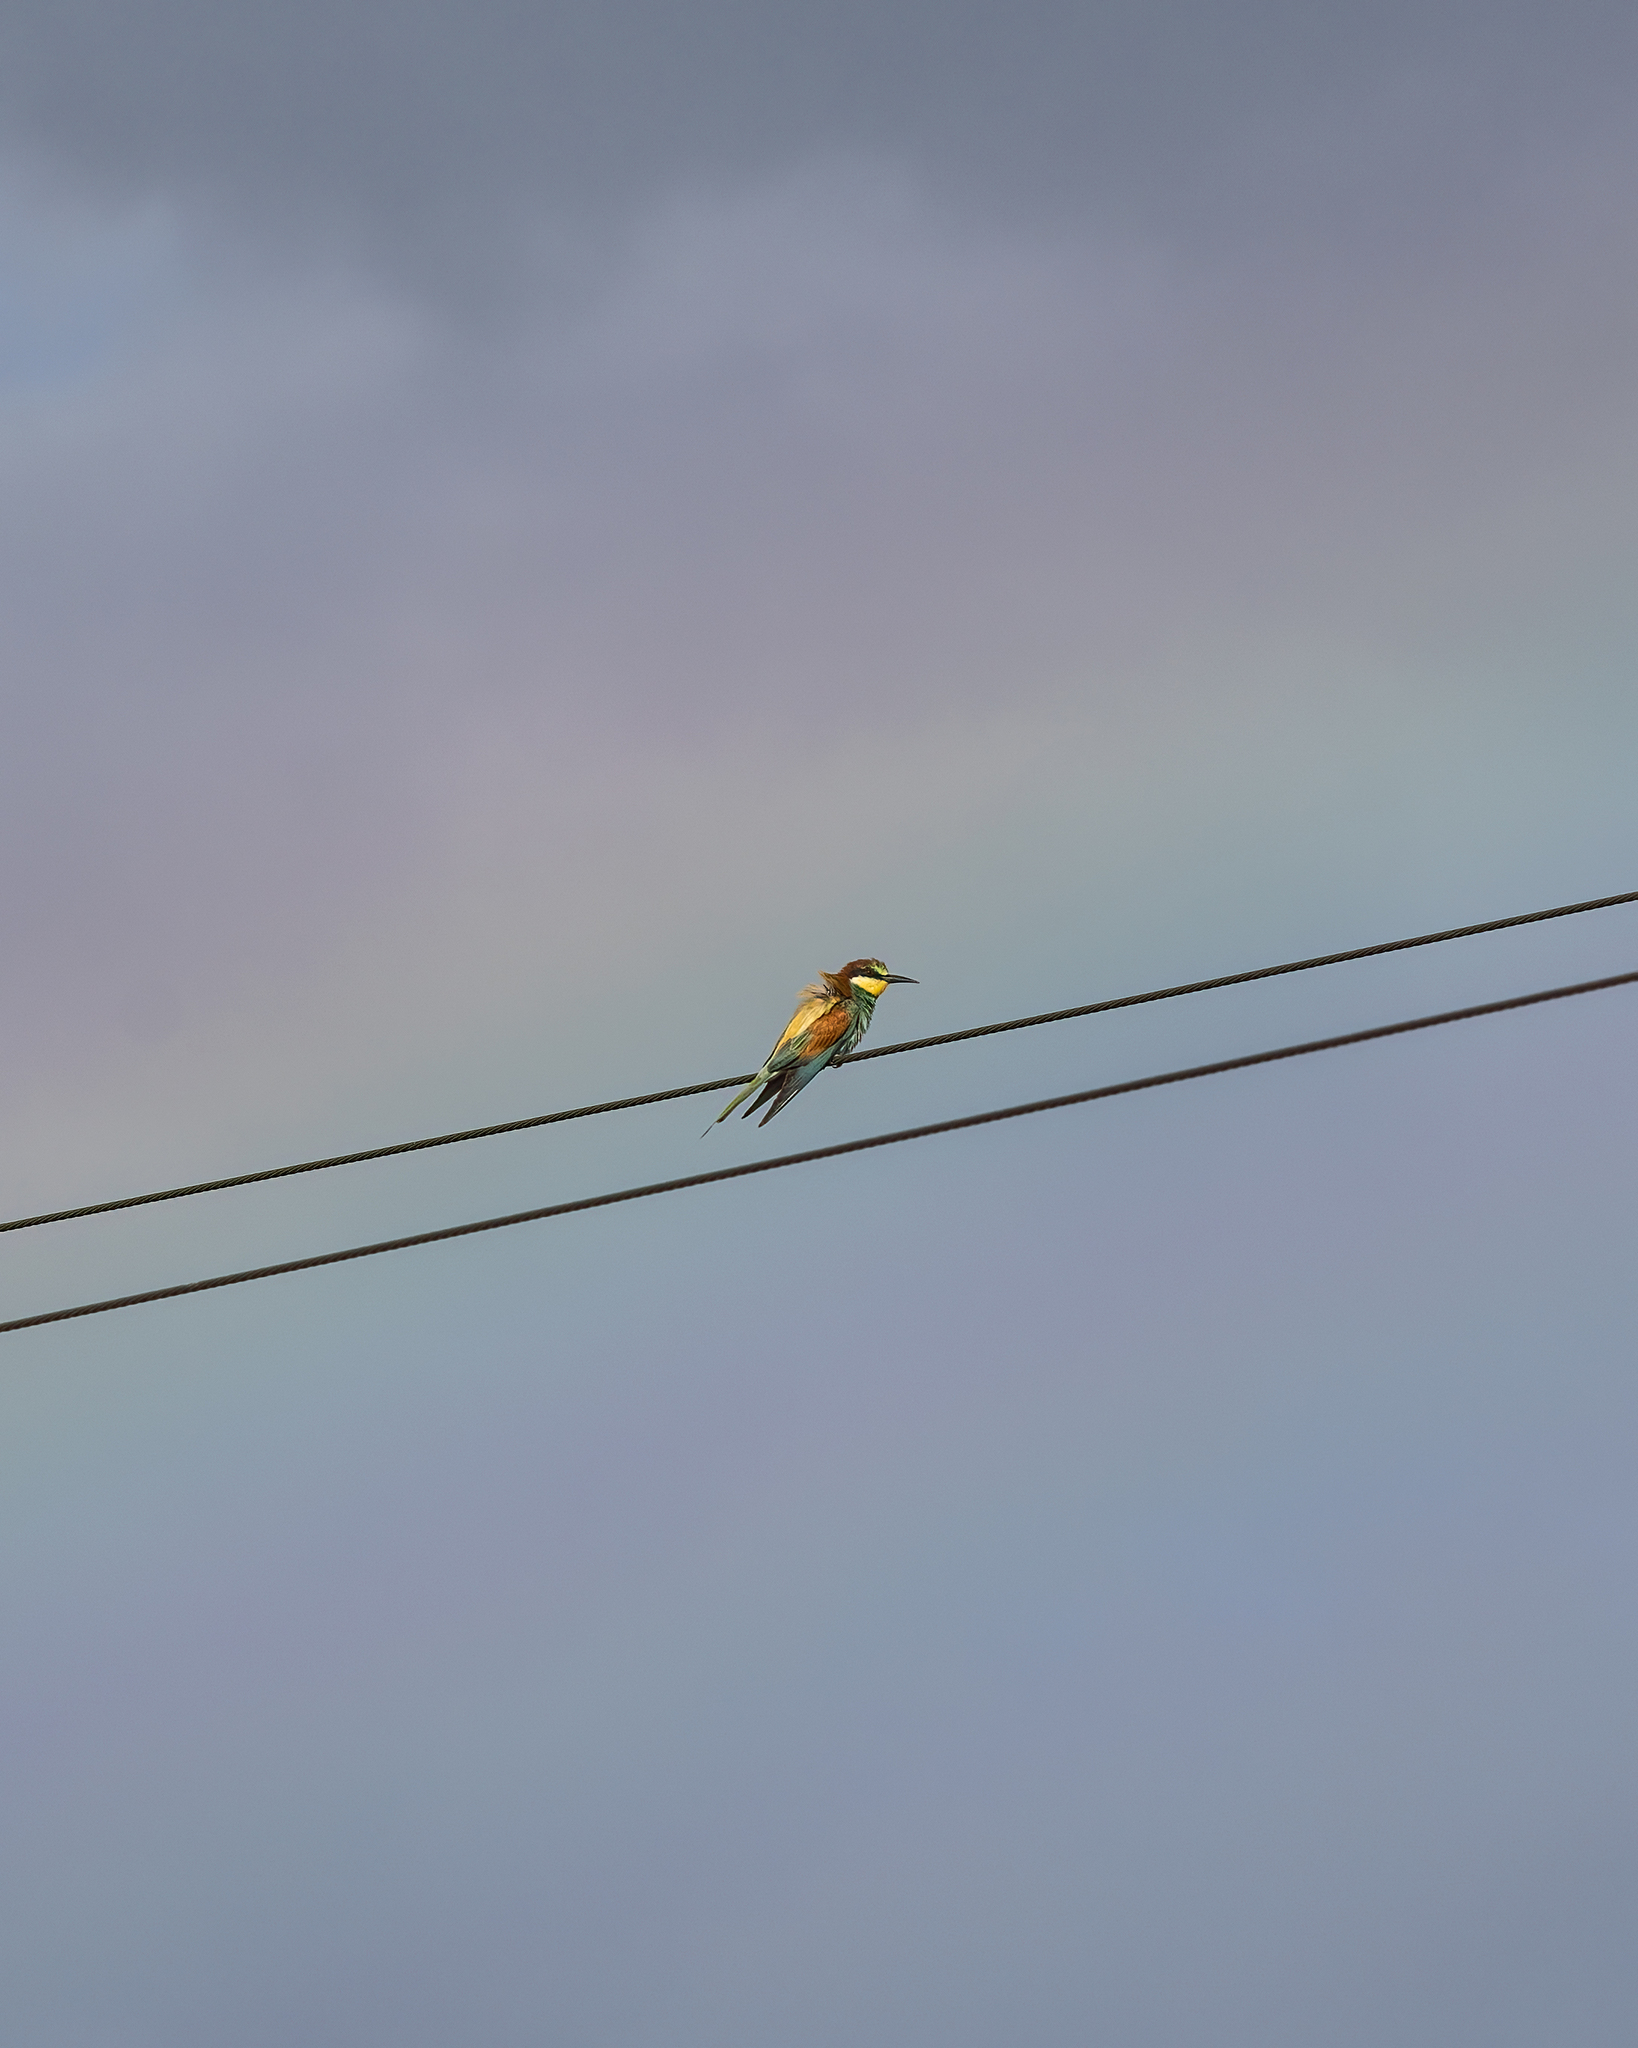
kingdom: Animalia
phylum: Chordata
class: Aves
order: Coraciiformes
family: Meropidae
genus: Merops
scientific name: Merops apiaster
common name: European bee-eater
